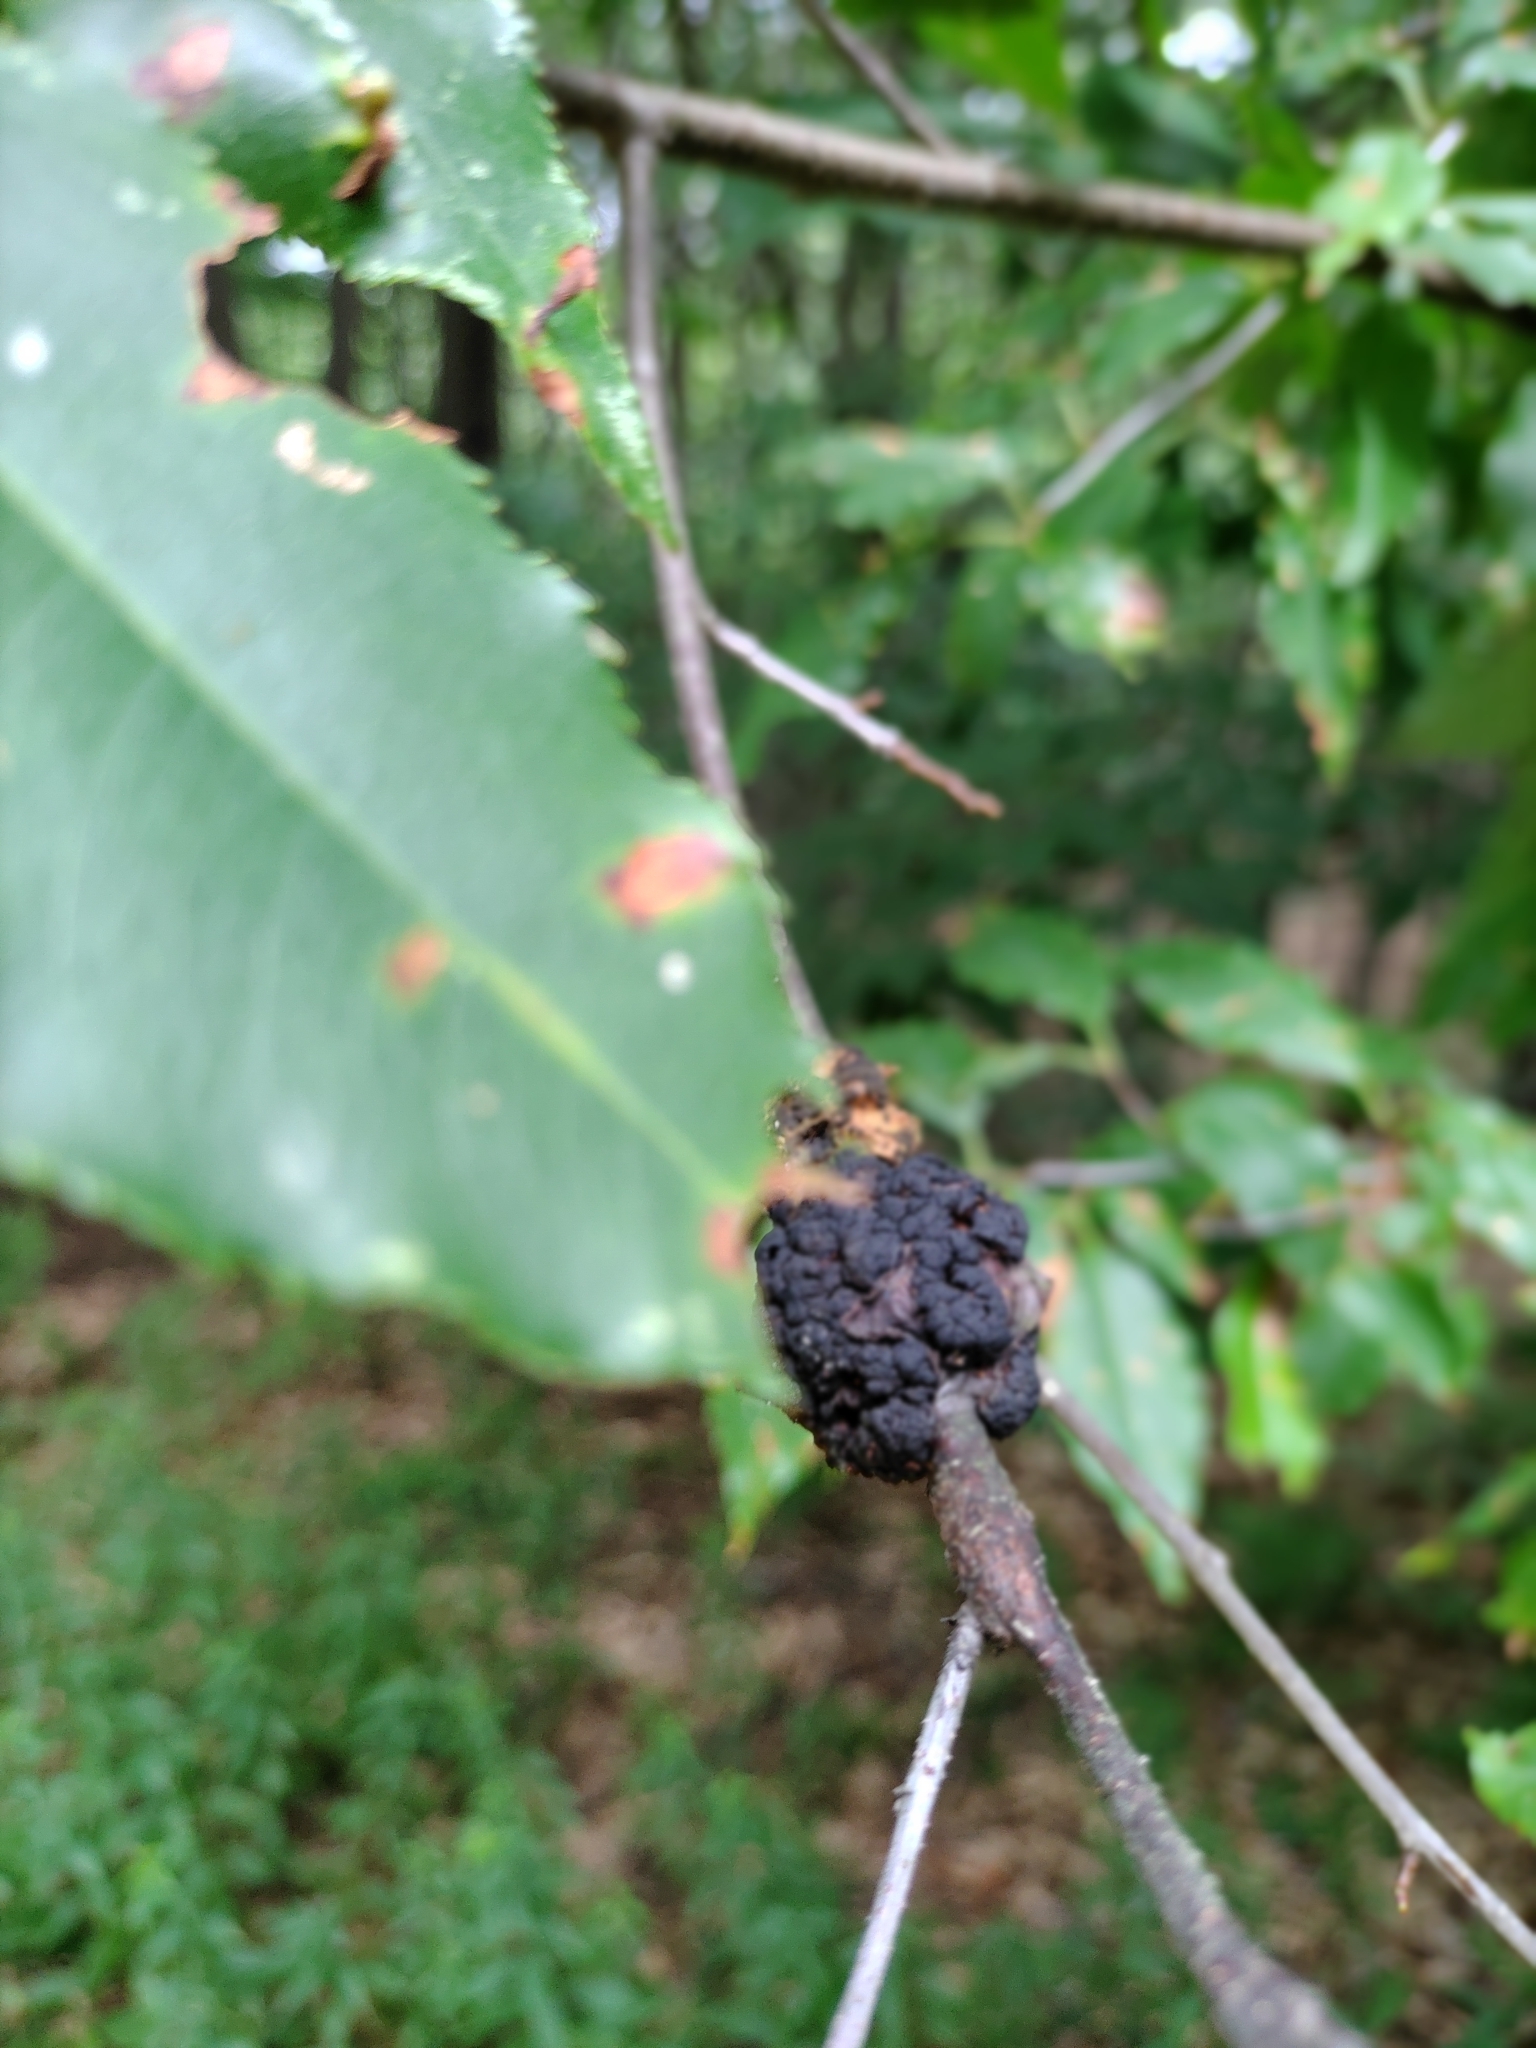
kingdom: Fungi
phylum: Ascomycota
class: Dothideomycetes
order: Venturiales
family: Venturiaceae
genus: Apiosporina
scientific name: Apiosporina morbosa
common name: Black knot
